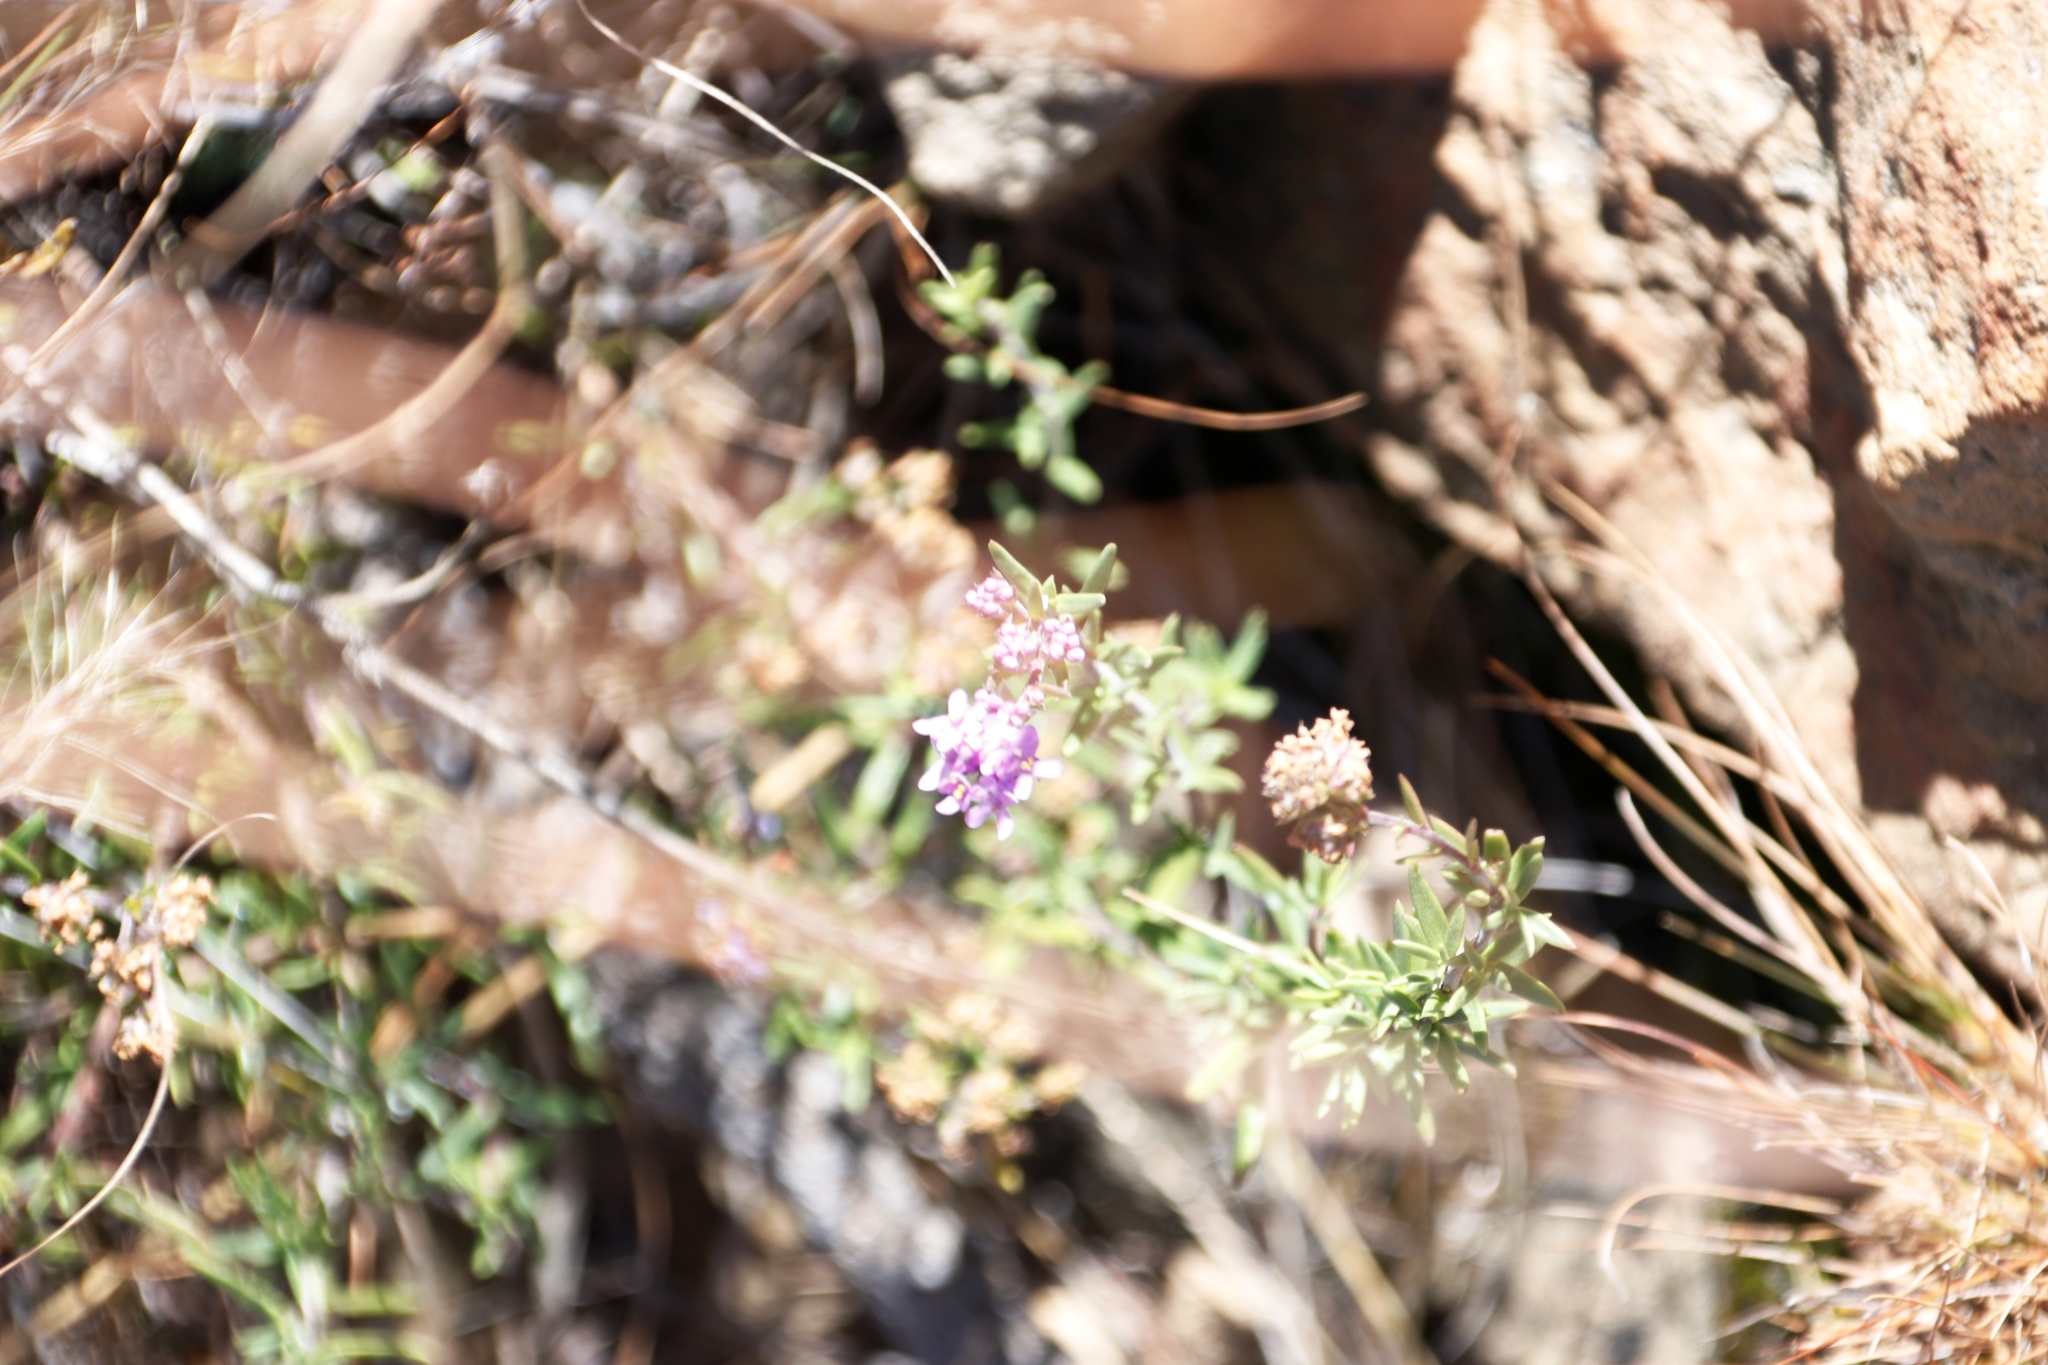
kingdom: Plantae
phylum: Tracheophyta
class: Magnoliopsida
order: Lamiales
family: Scrophulariaceae
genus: Selago
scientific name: Selago flanaganii
